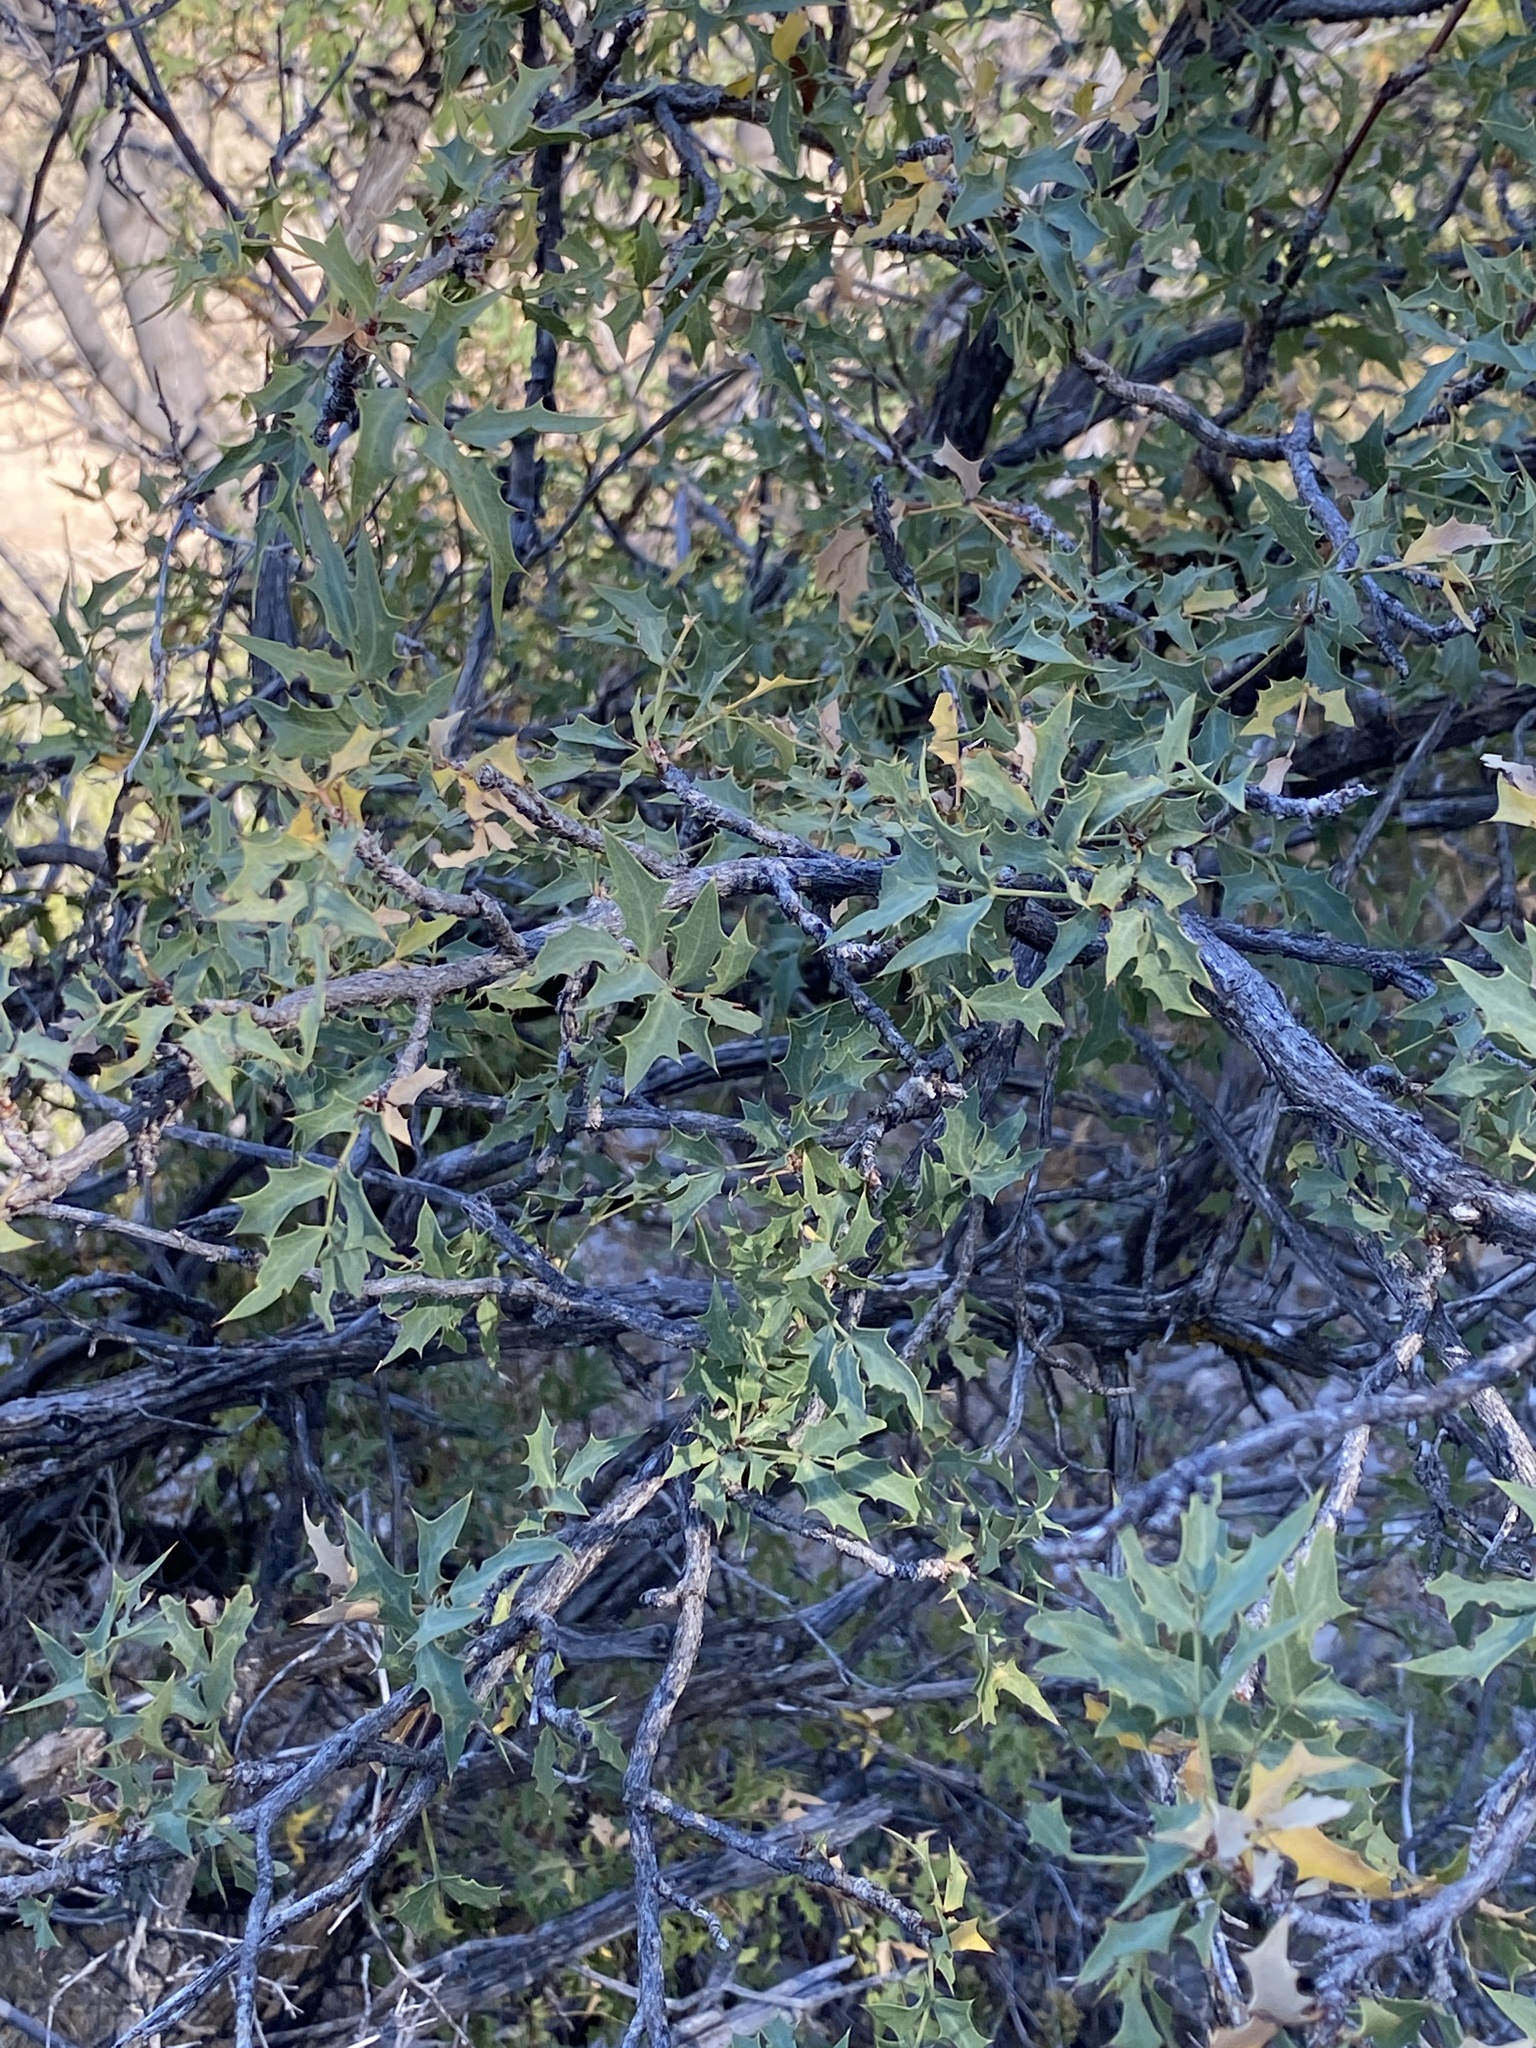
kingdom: Plantae
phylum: Tracheophyta
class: Magnoliopsida
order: Ranunculales
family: Berberidaceae
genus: Alloberberis
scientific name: Alloberberis haematocarpa
